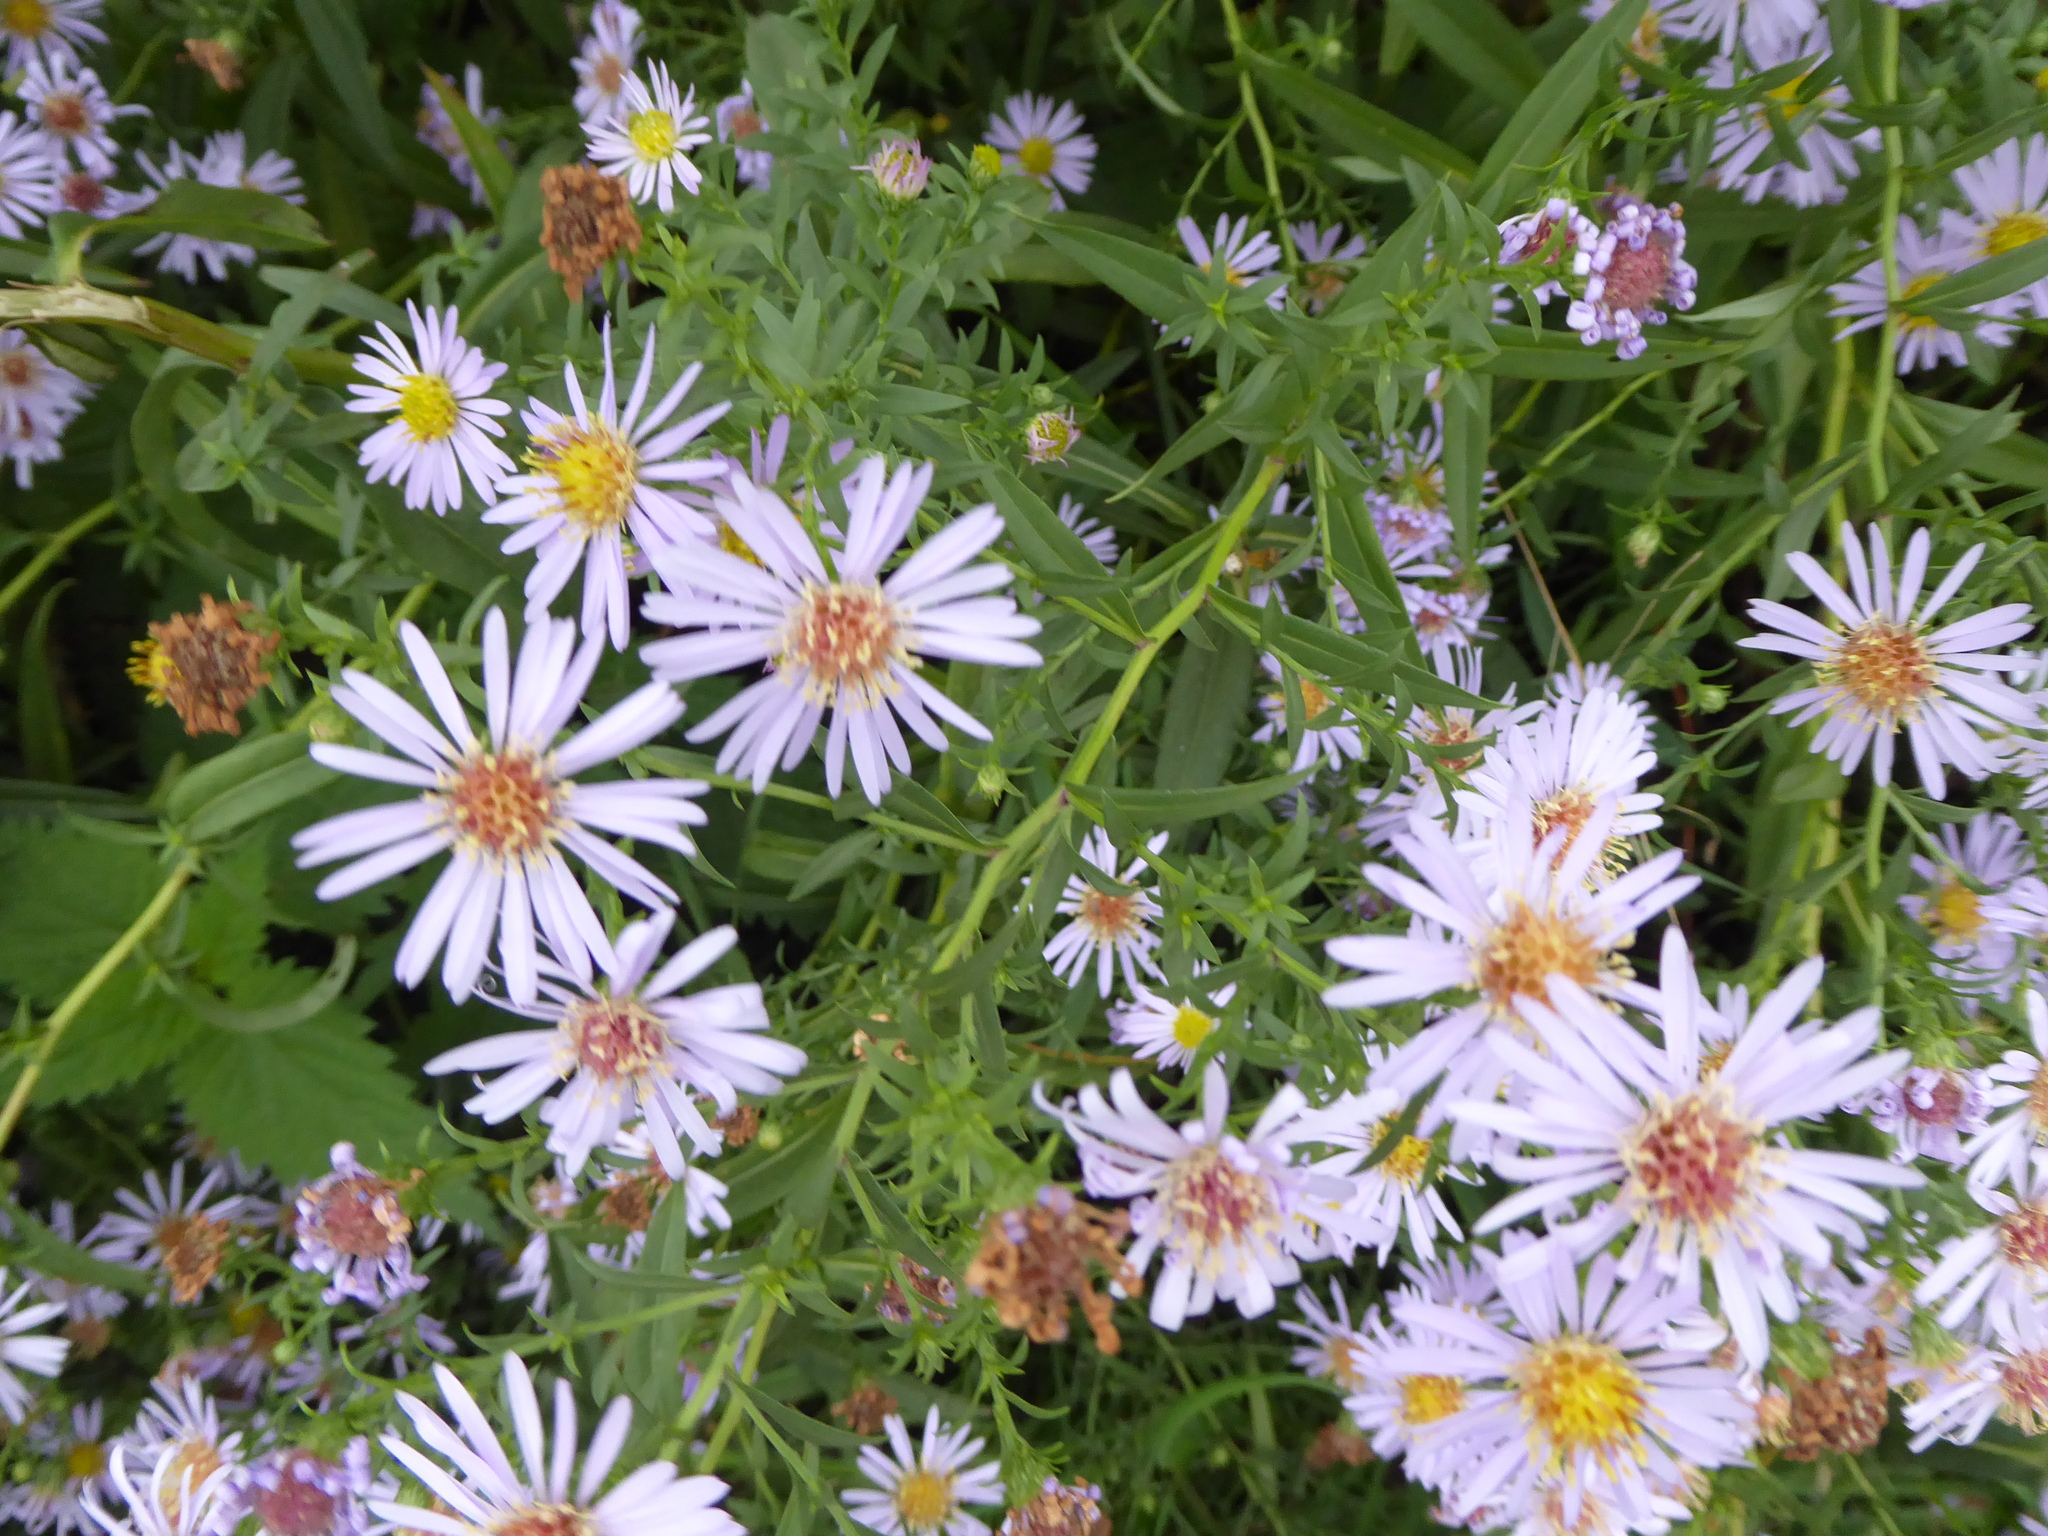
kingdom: Plantae
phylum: Tracheophyta
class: Magnoliopsida
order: Asterales
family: Asteraceae
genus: Symphyotrichum
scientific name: Symphyotrichum
